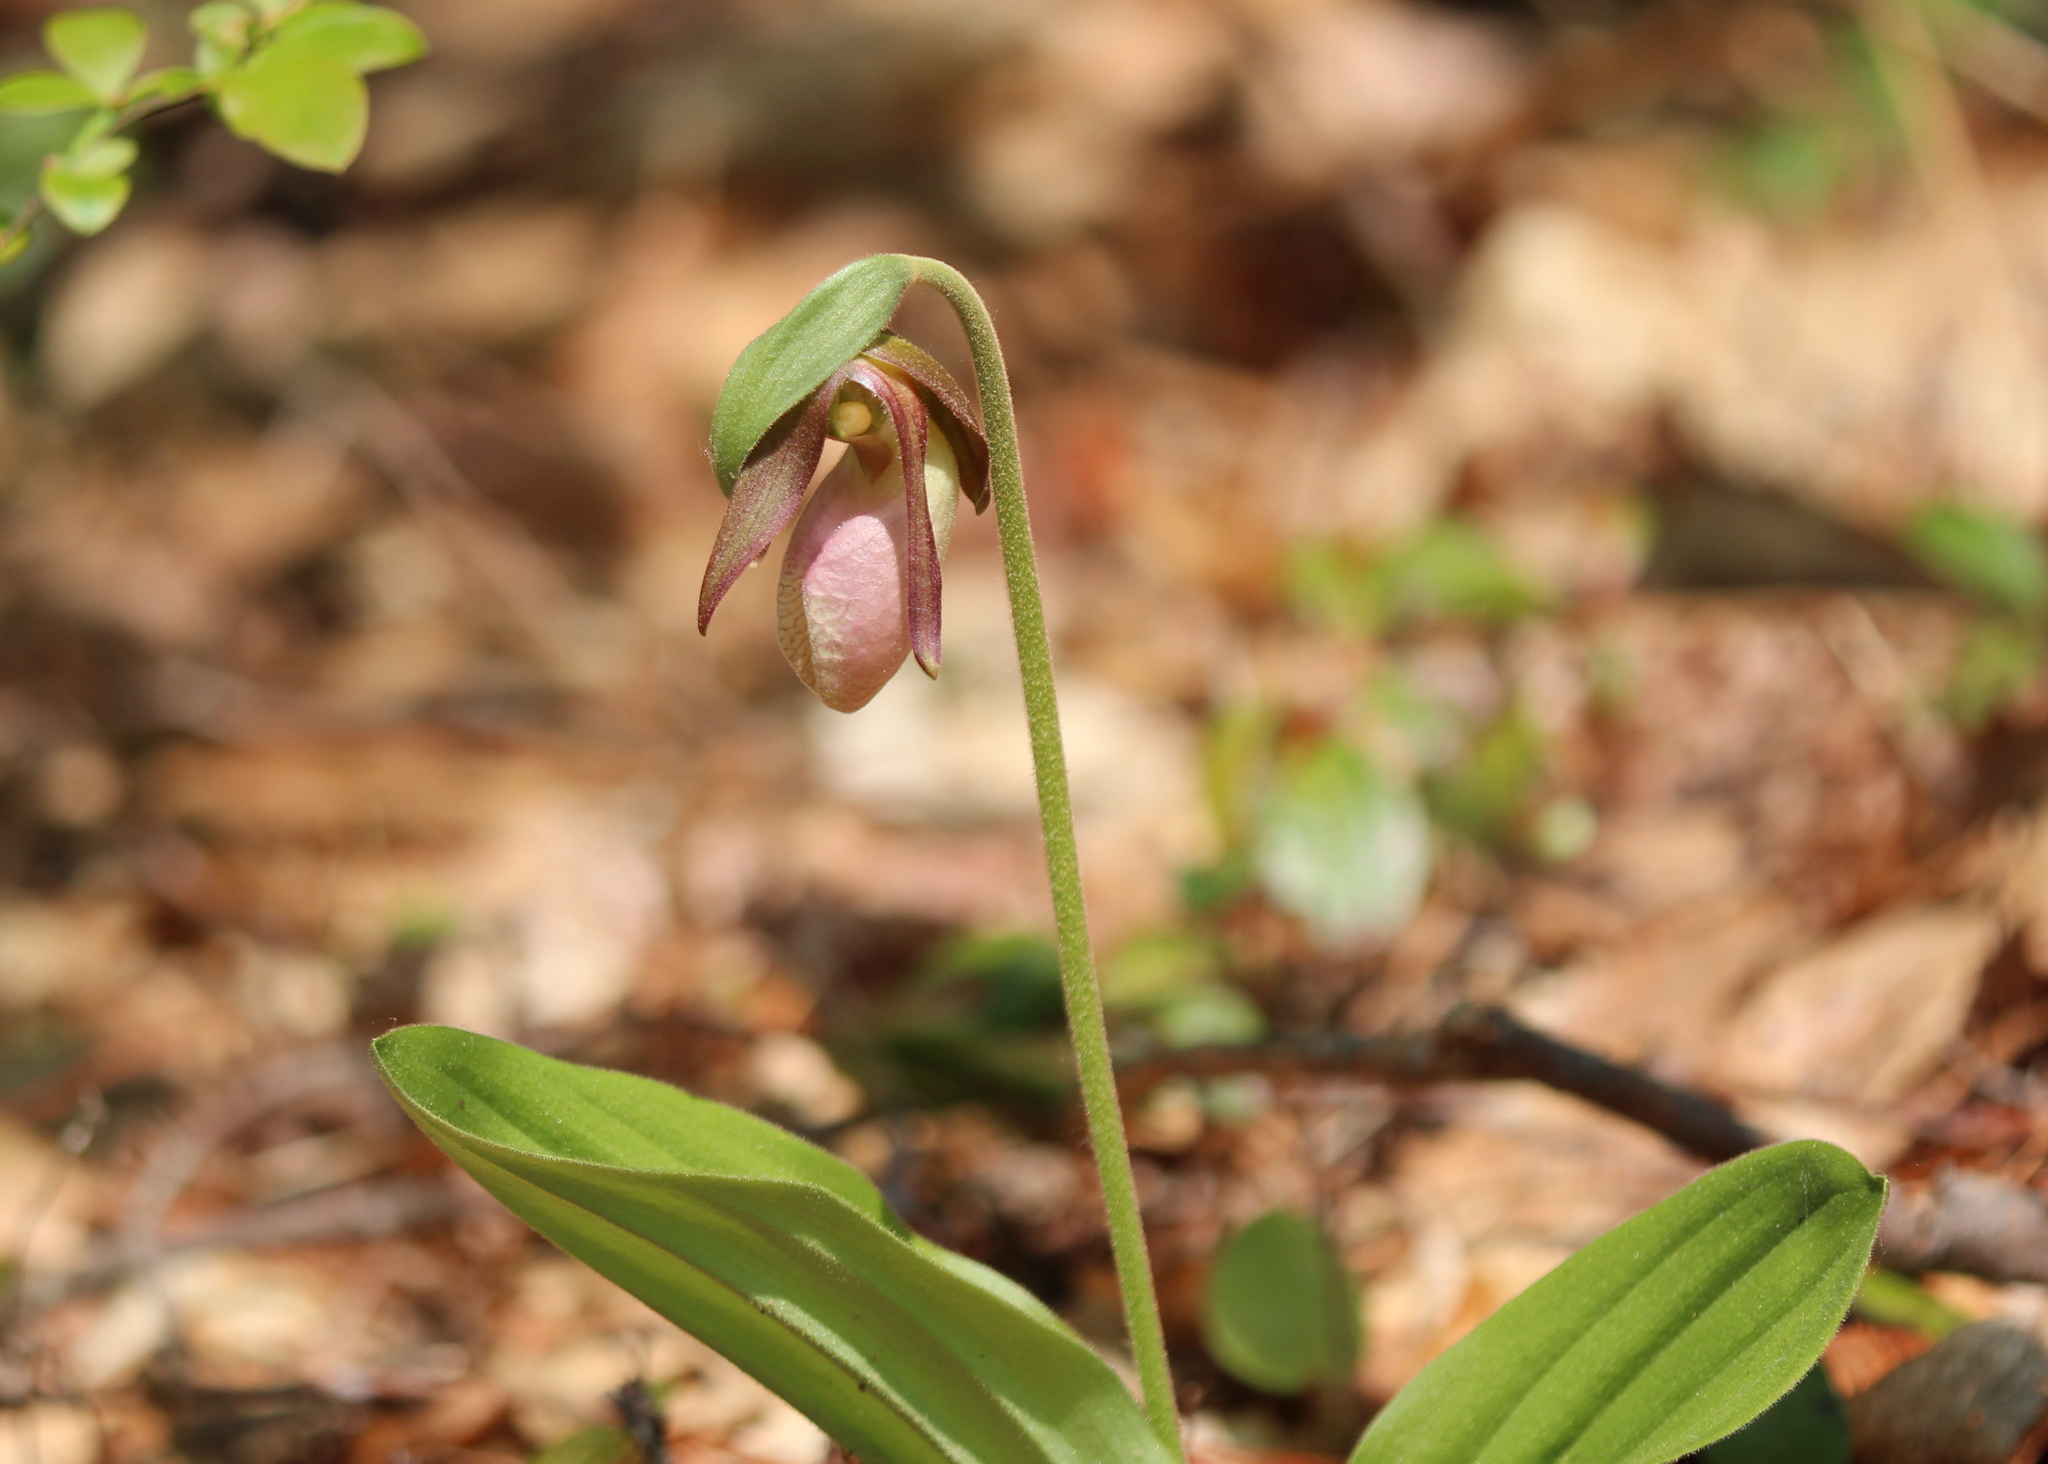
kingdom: Plantae
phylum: Tracheophyta
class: Liliopsida
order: Asparagales
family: Orchidaceae
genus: Cypripedium
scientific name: Cypripedium acaule
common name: Pink lady's-slipper
